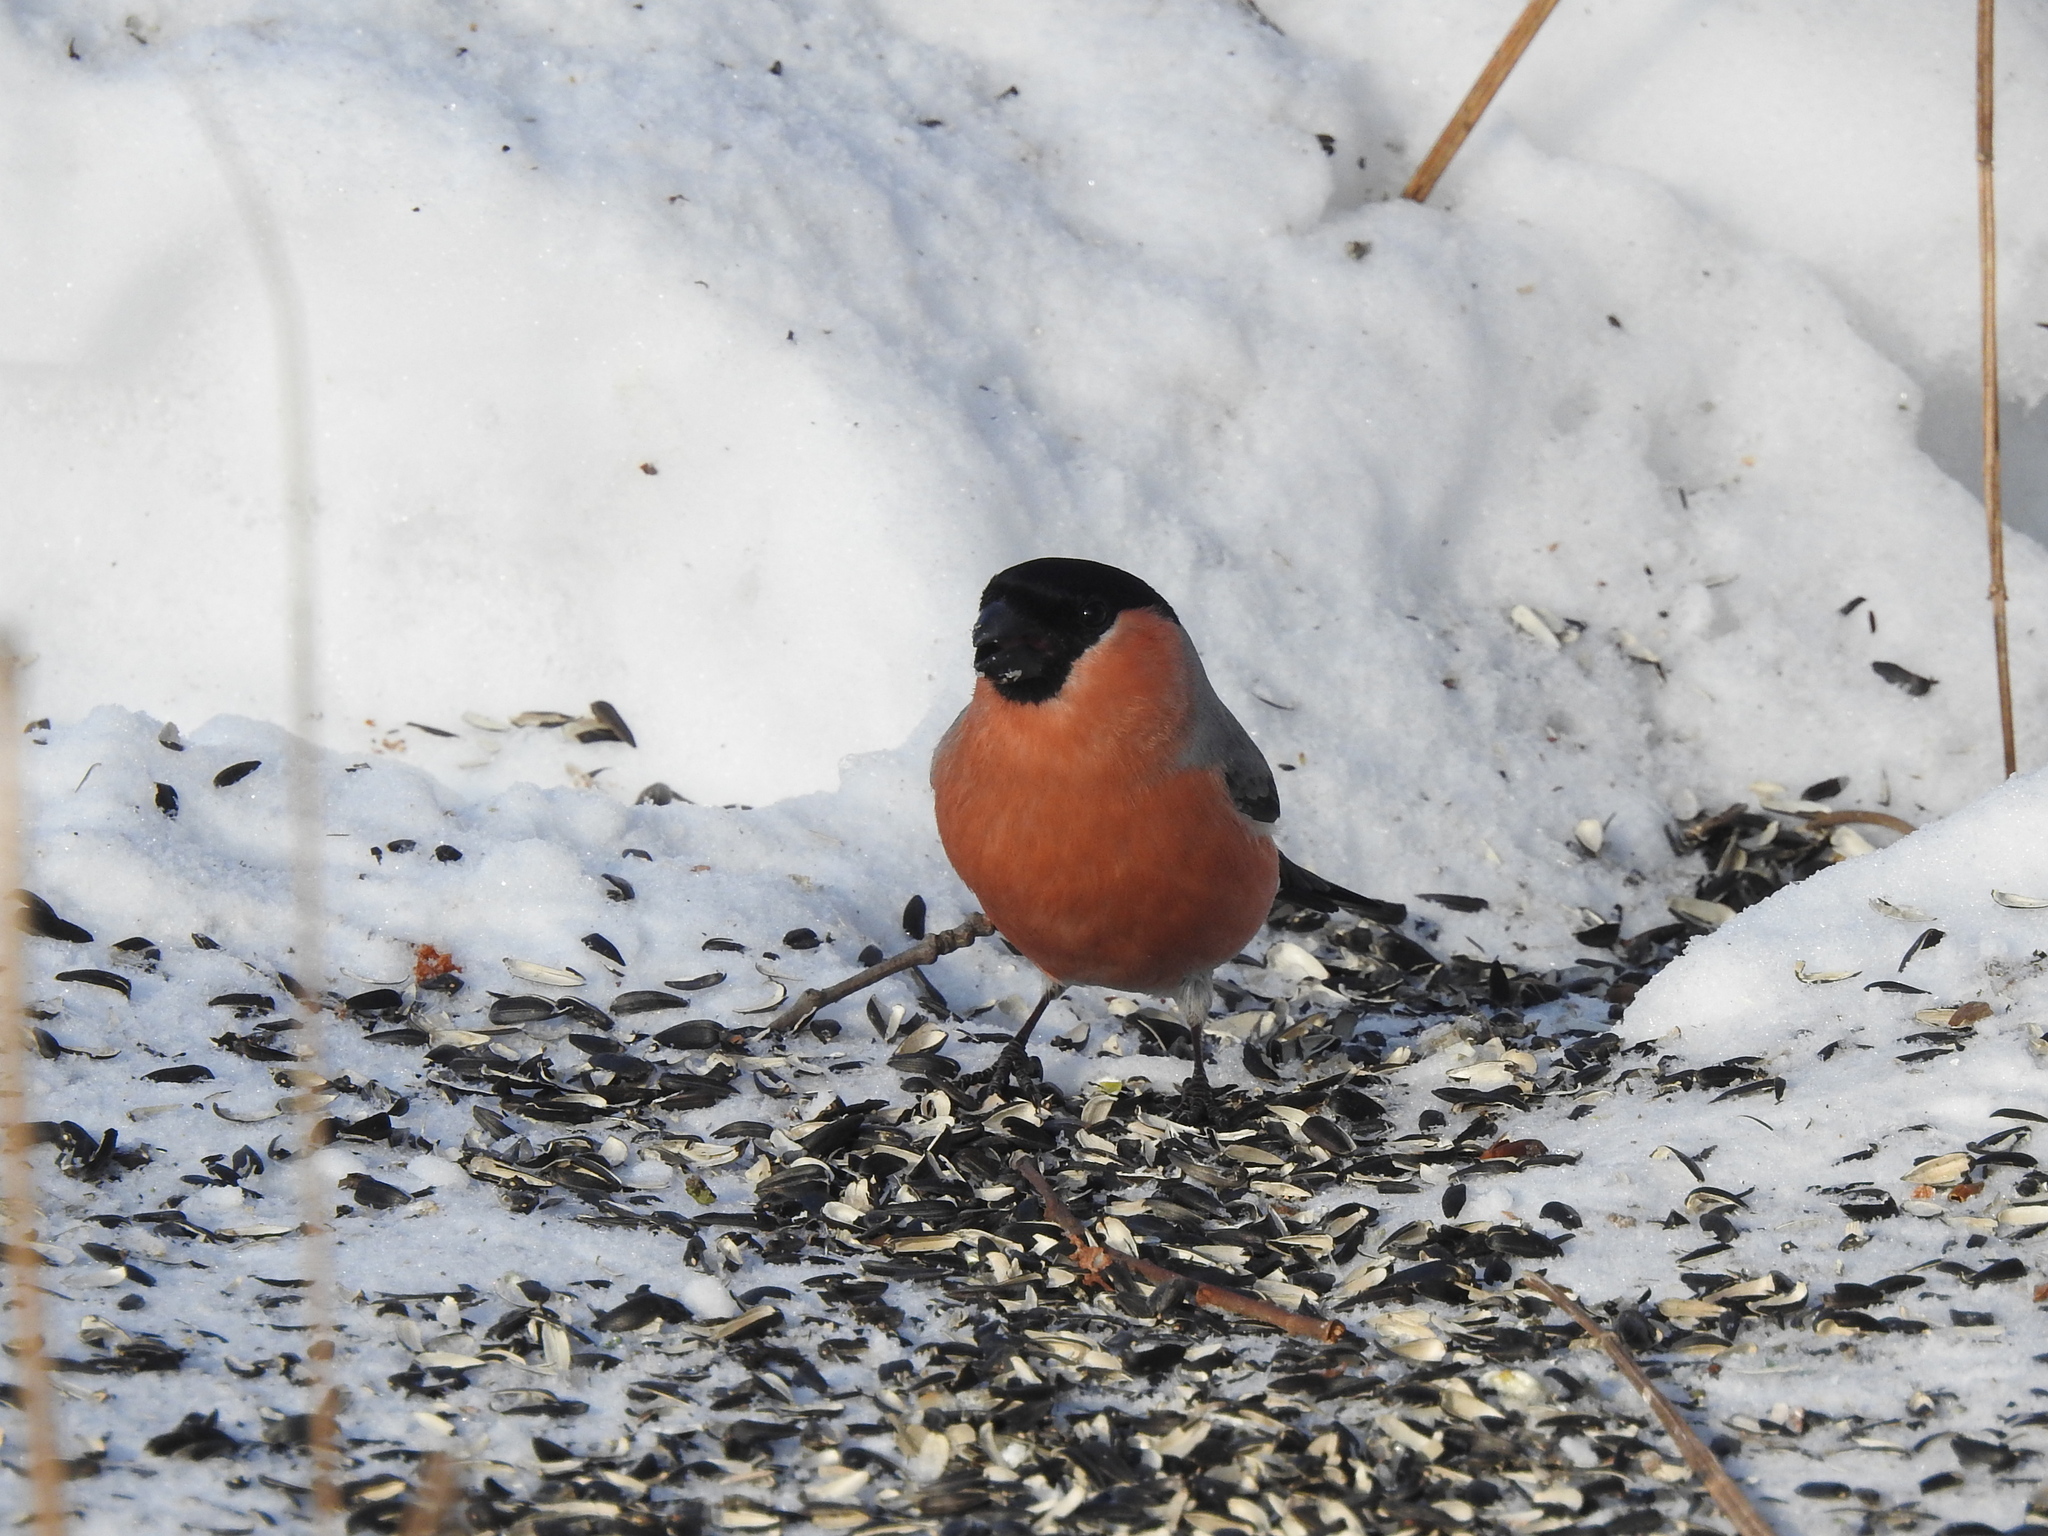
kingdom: Animalia
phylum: Chordata
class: Aves
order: Passeriformes
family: Fringillidae
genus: Pyrrhula
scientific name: Pyrrhula pyrrhula
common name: Eurasian bullfinch
